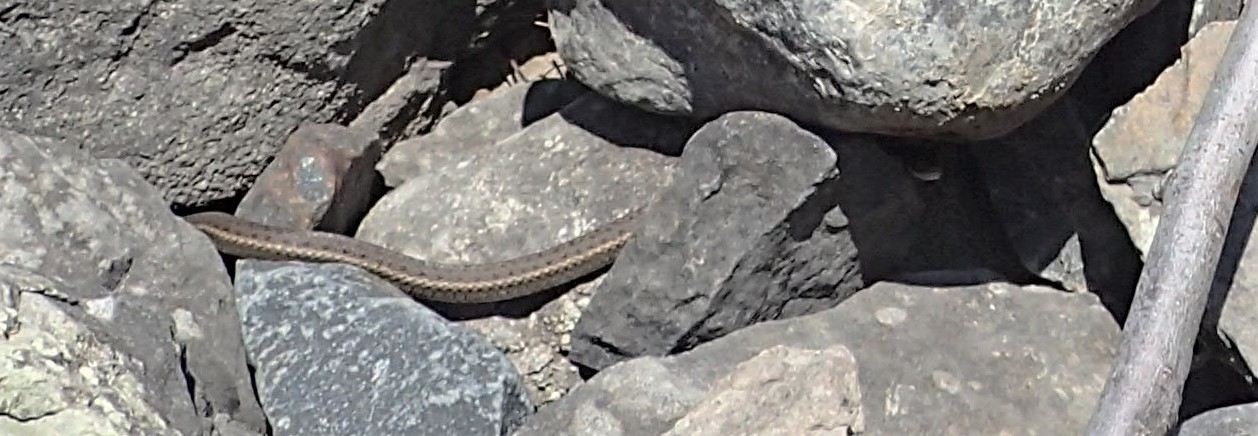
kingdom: Animalia
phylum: Chordata
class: Squamata
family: Colubridae
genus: Thamnophis
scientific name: Thamnophis elegans
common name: Western terrestrial garter snake
